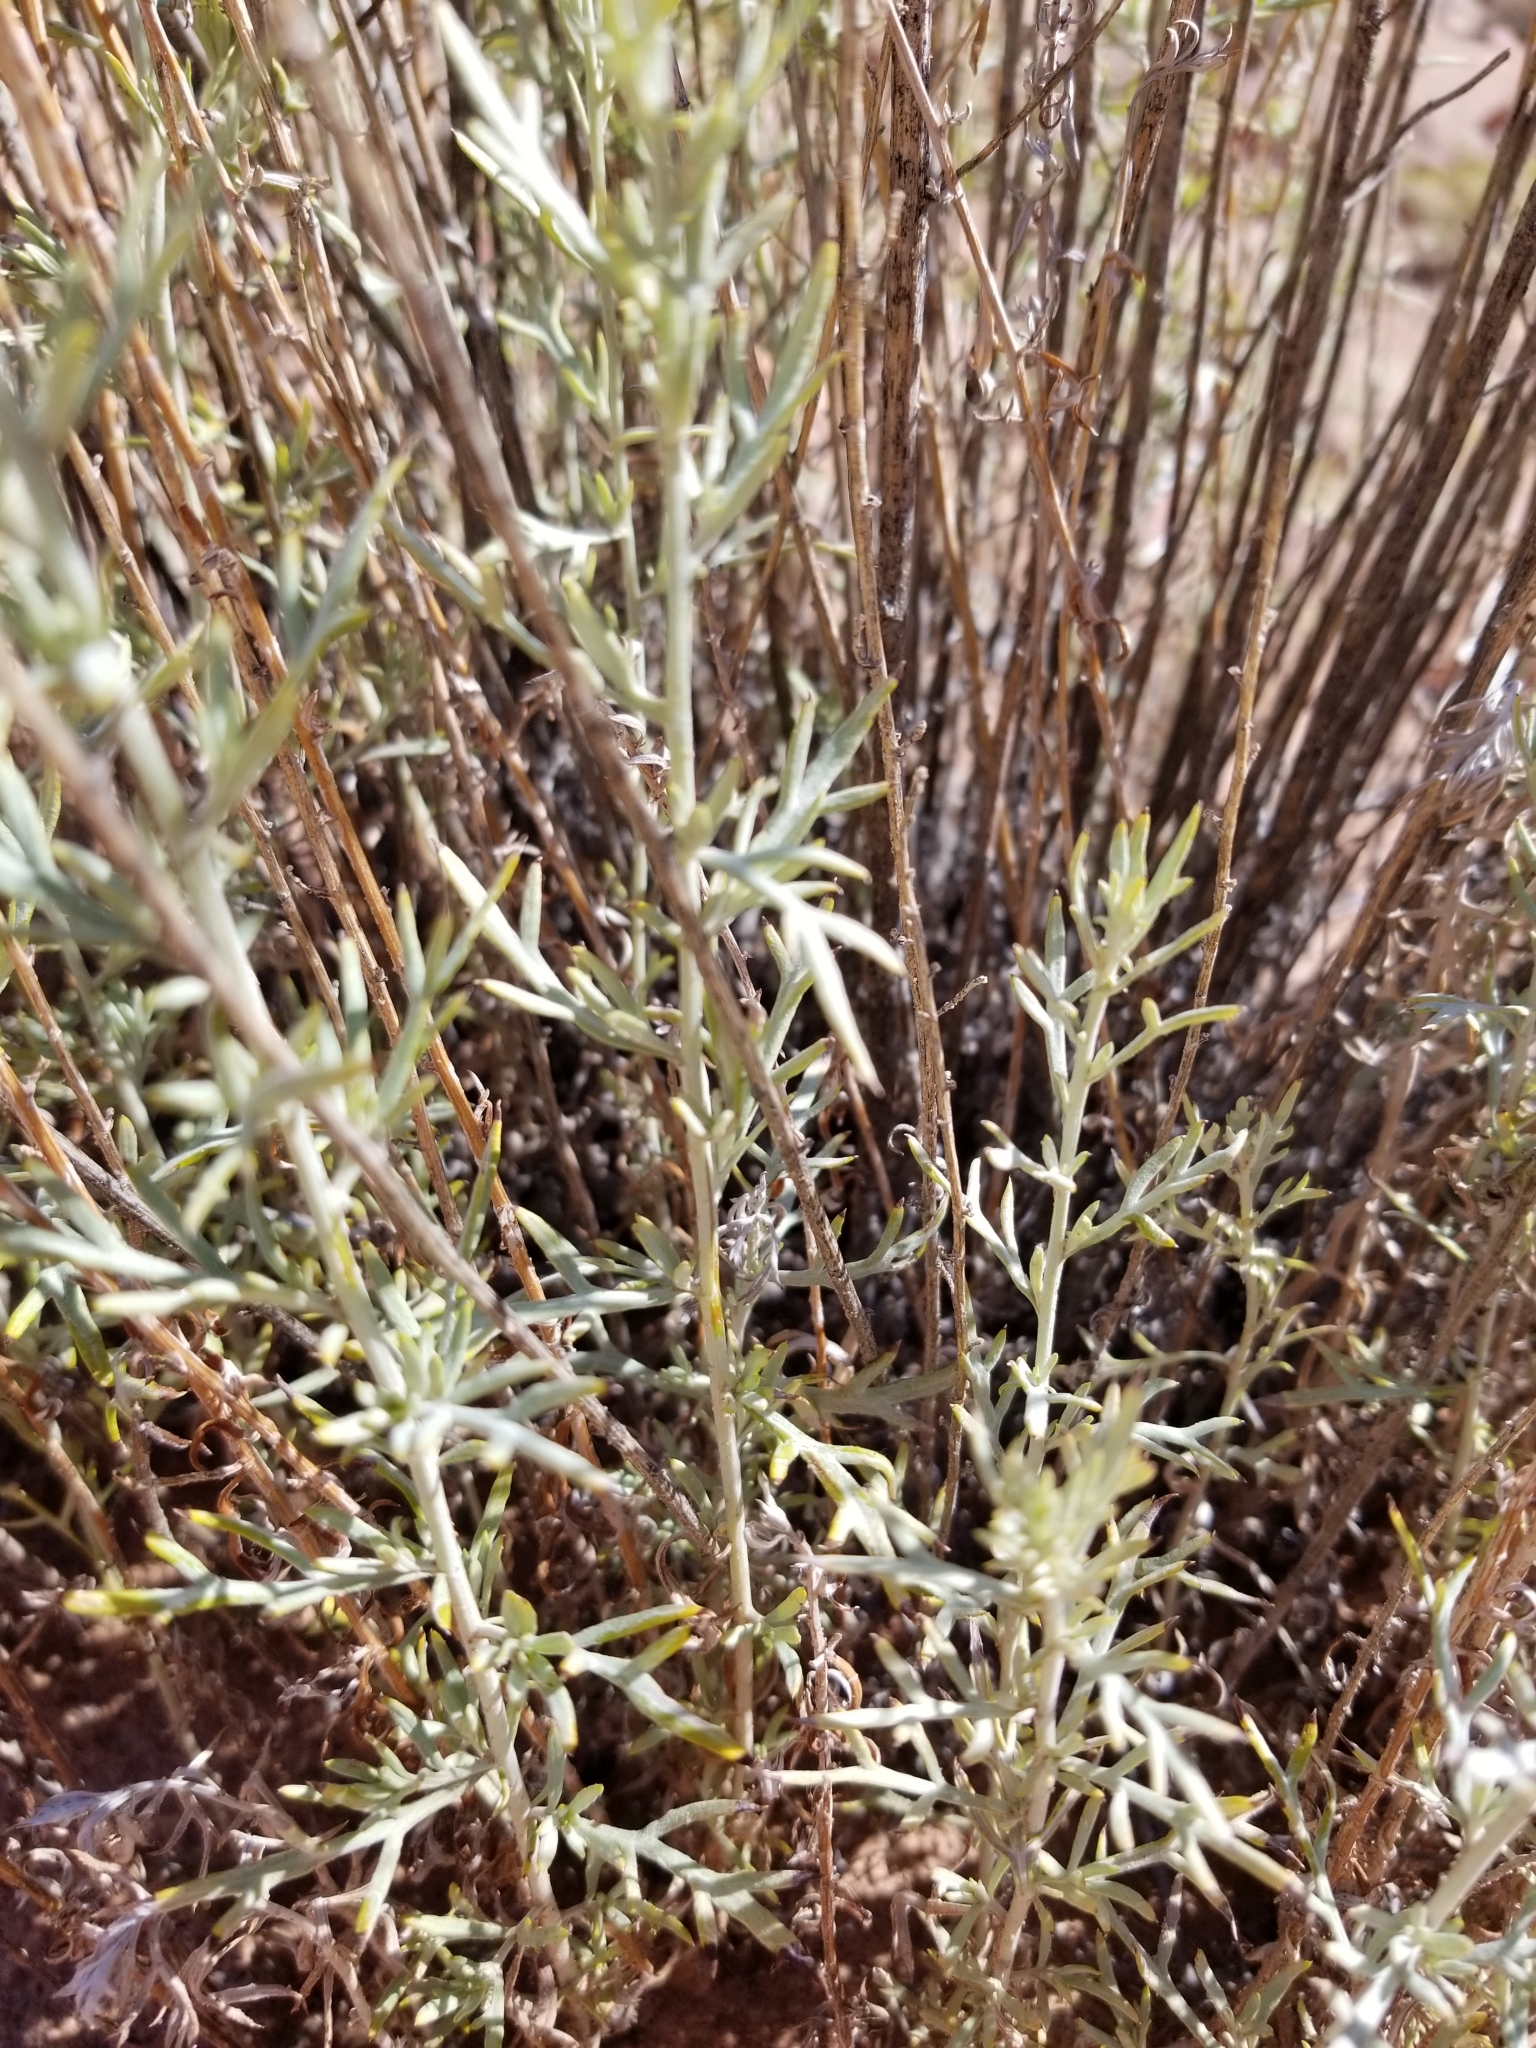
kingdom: Plantae
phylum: Tracheophyta
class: Magnoliopsida
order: Asterales
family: Asteraceae
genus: Artemisia
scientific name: Artemisia ludoviciana
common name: Western mugwort
